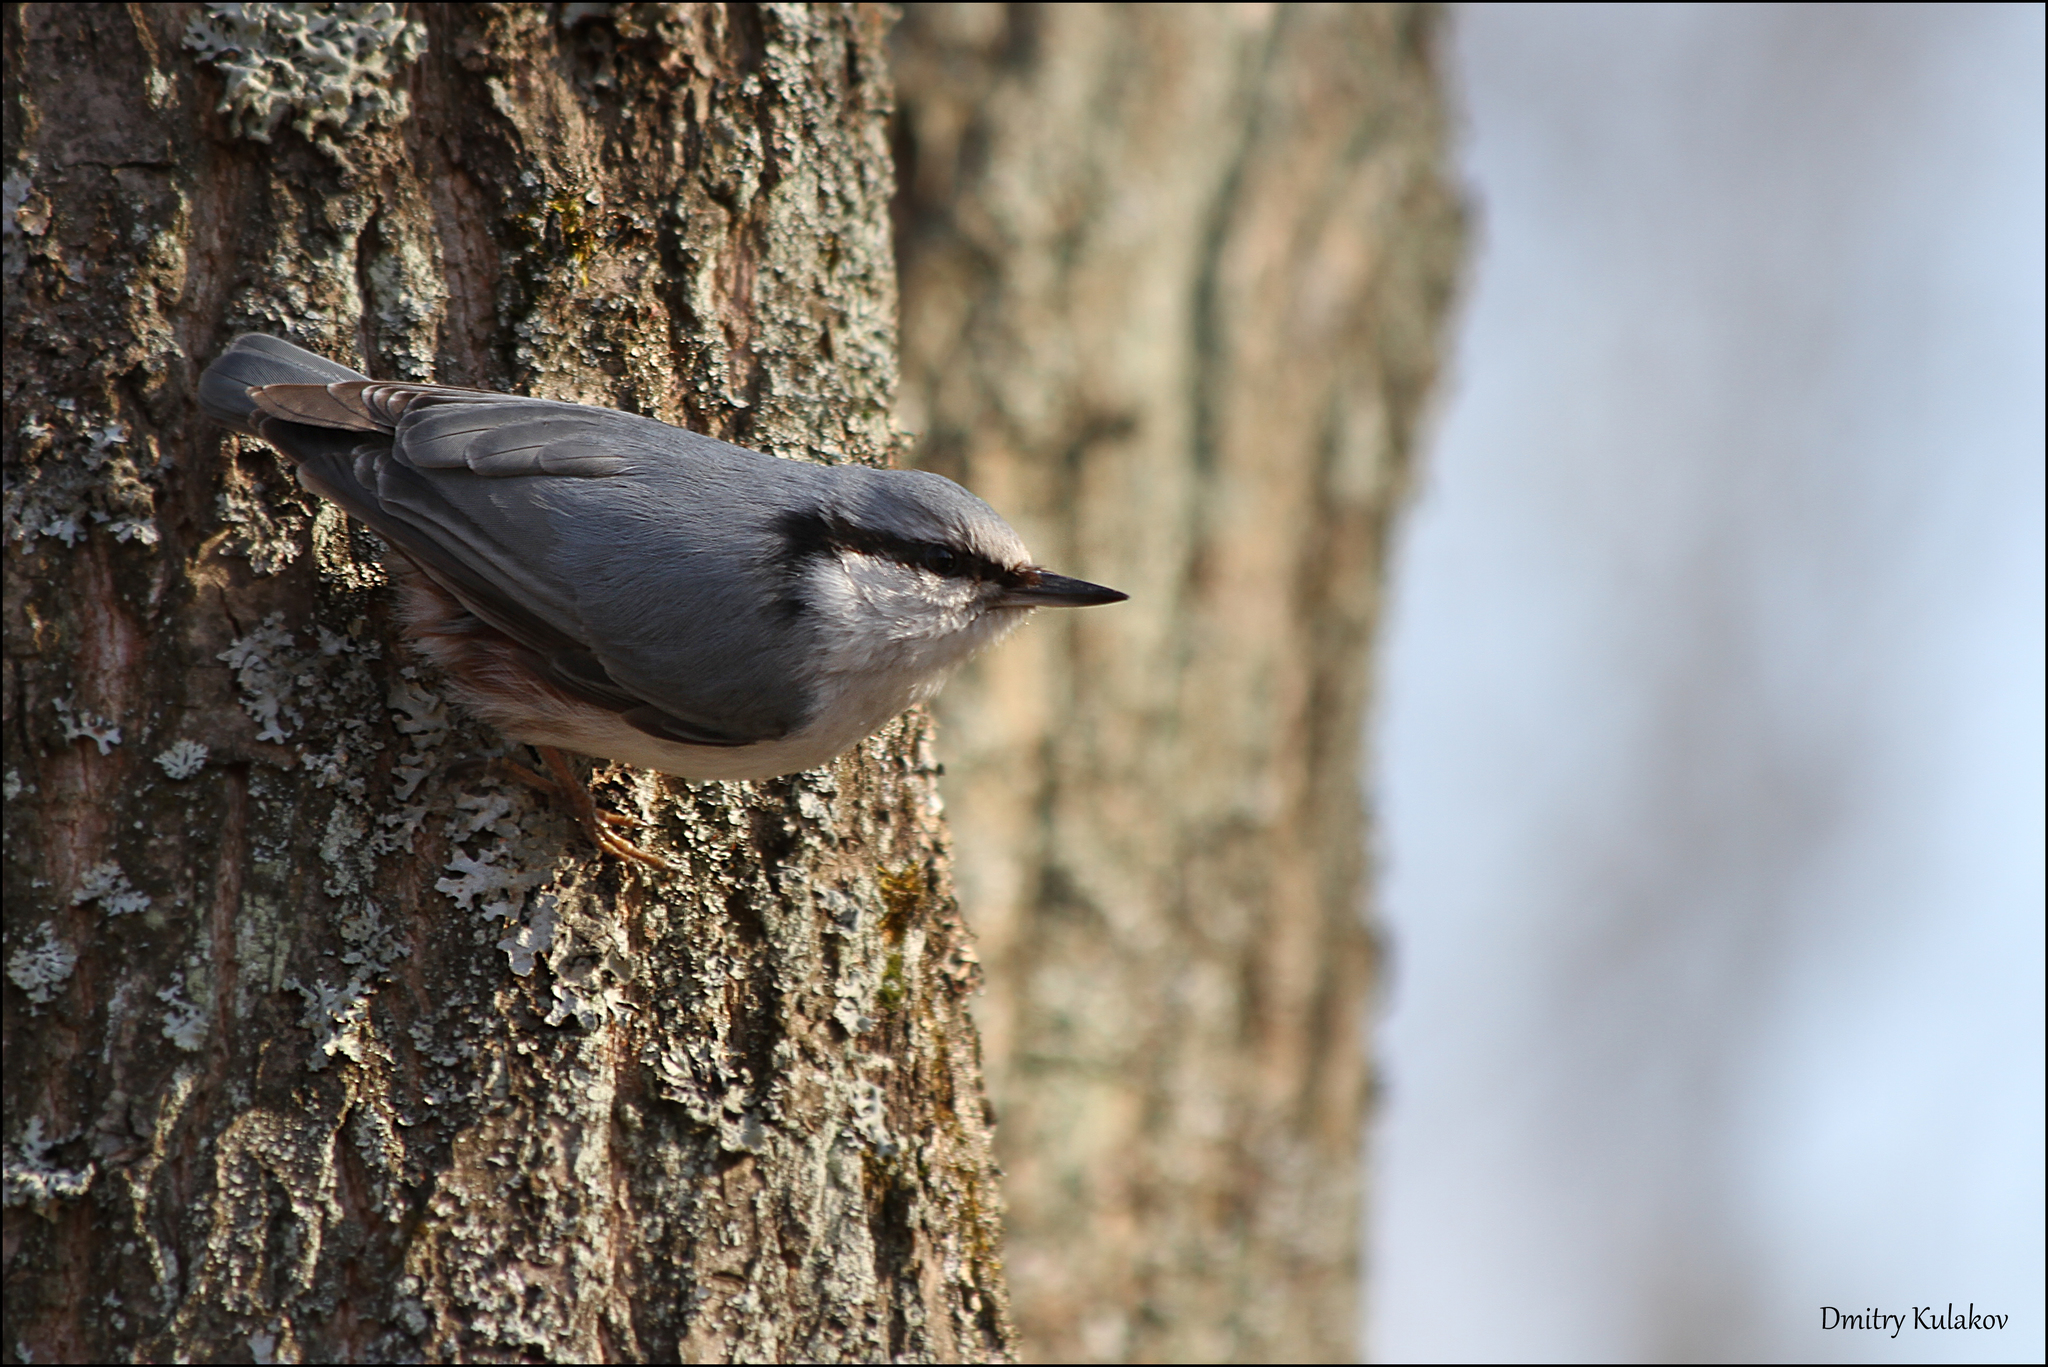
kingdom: Animalia
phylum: Chordata
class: Aves
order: Passeriformes
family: Sittidae
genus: Sitta
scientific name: Sitta europaea
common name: Eurasian nuthatch
